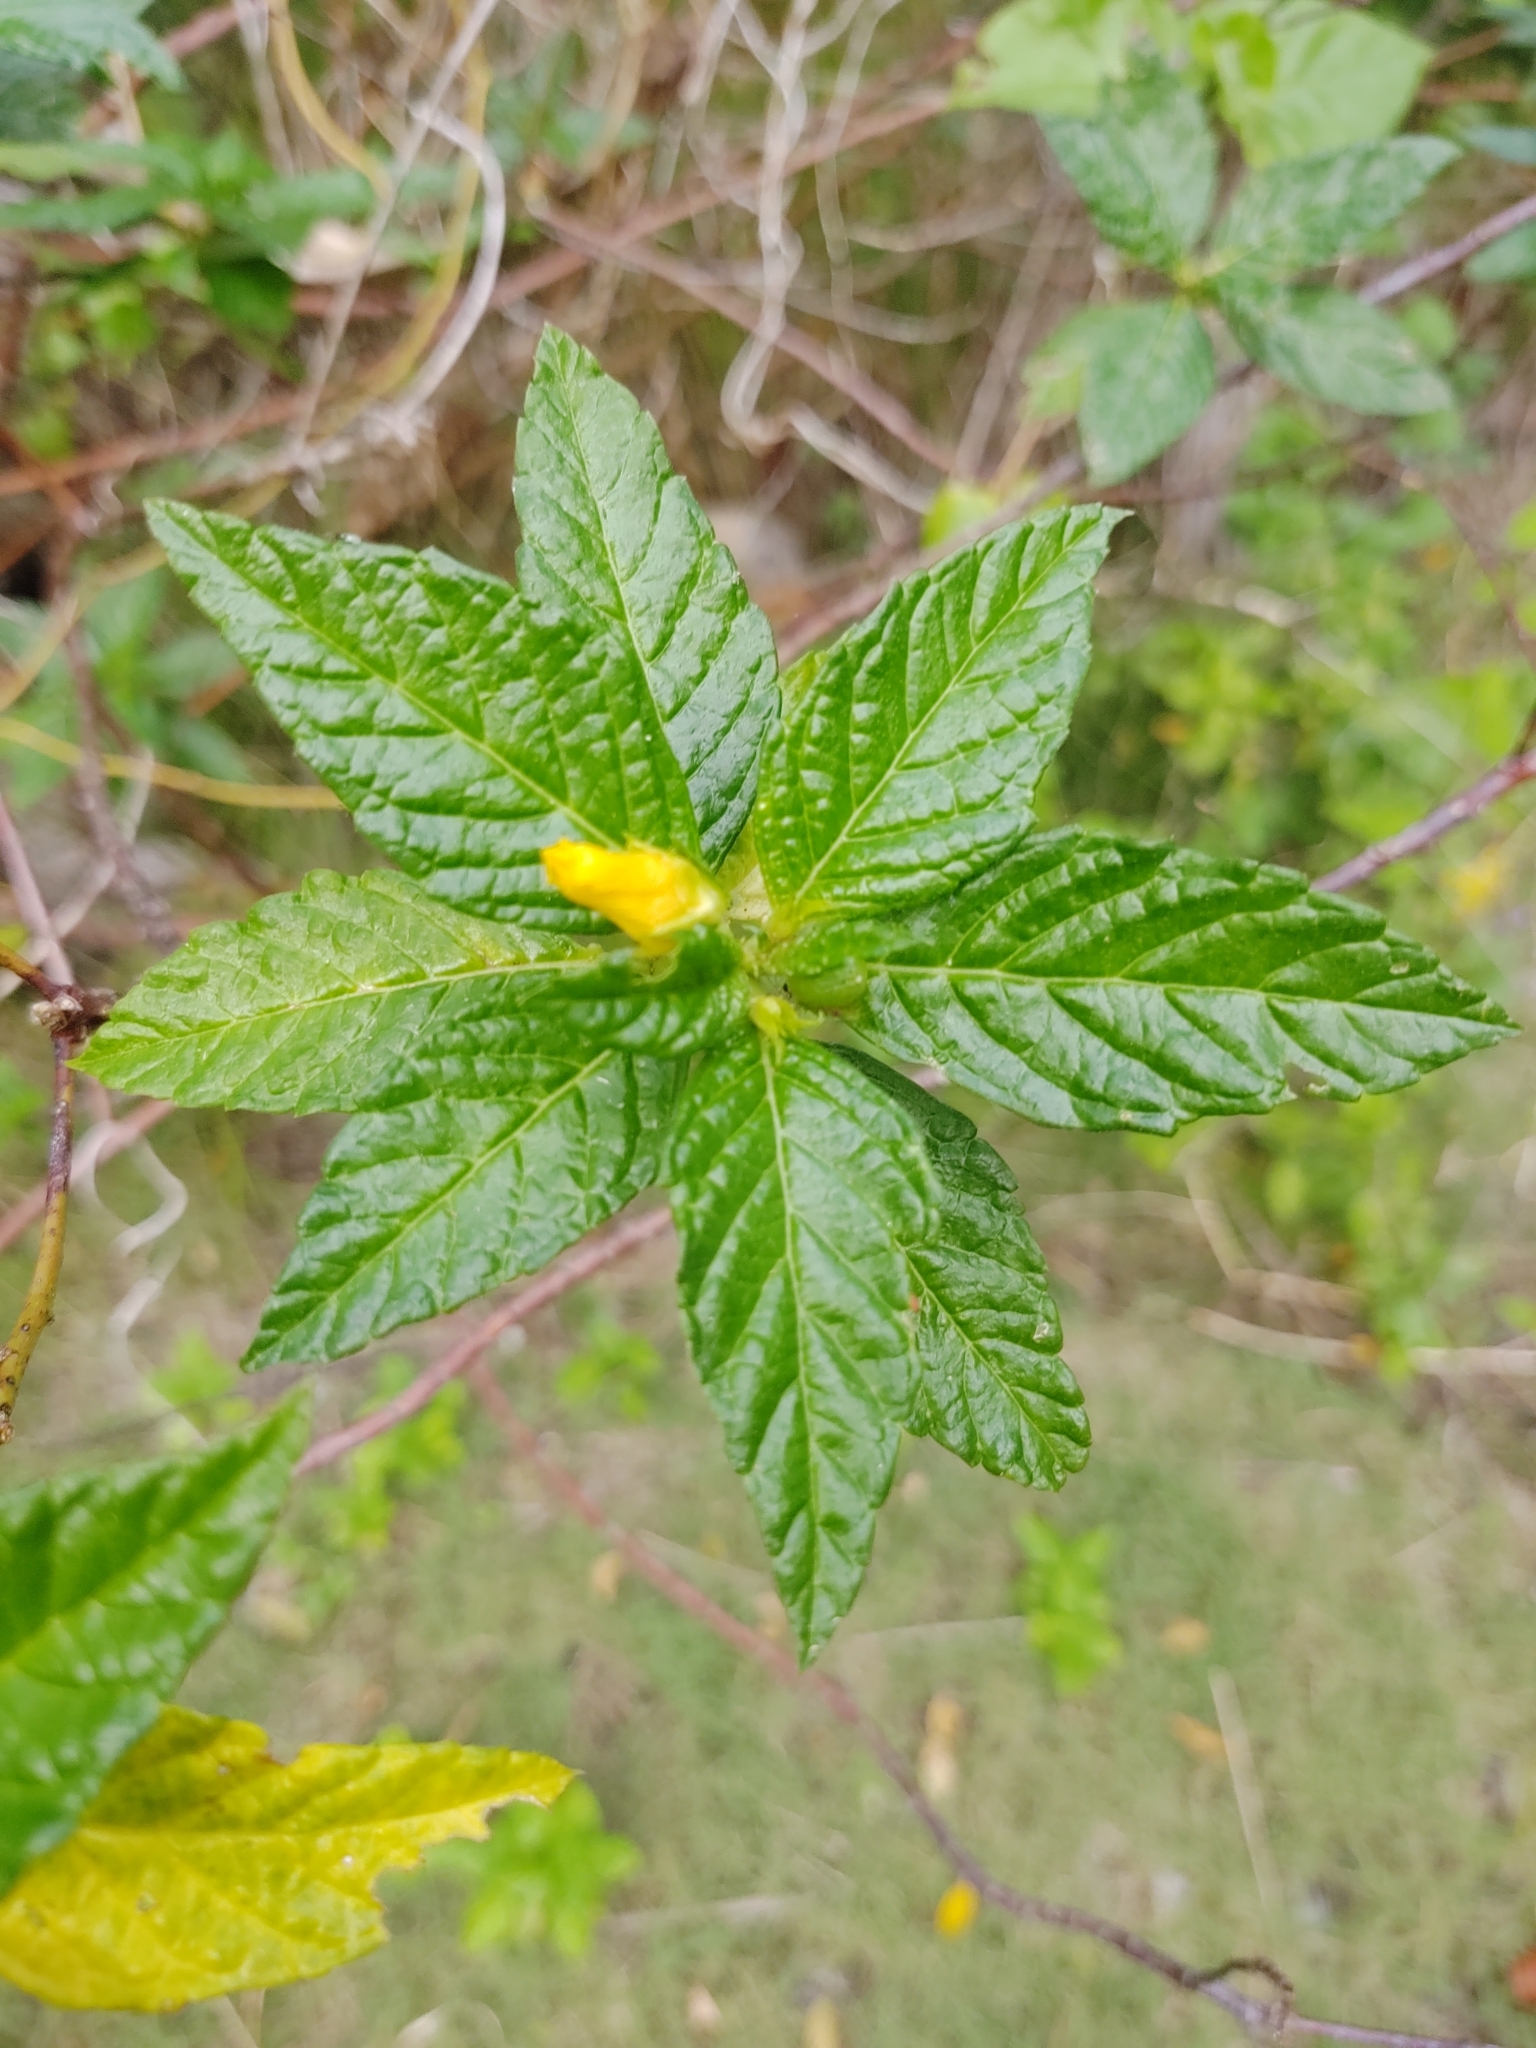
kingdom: Plantae
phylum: Tracheophyta
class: Magnoliopsida
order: Malpighiales
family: Turneraceae
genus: Turnera
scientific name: Turnera ulmifolia
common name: Ramgoat dashalong
